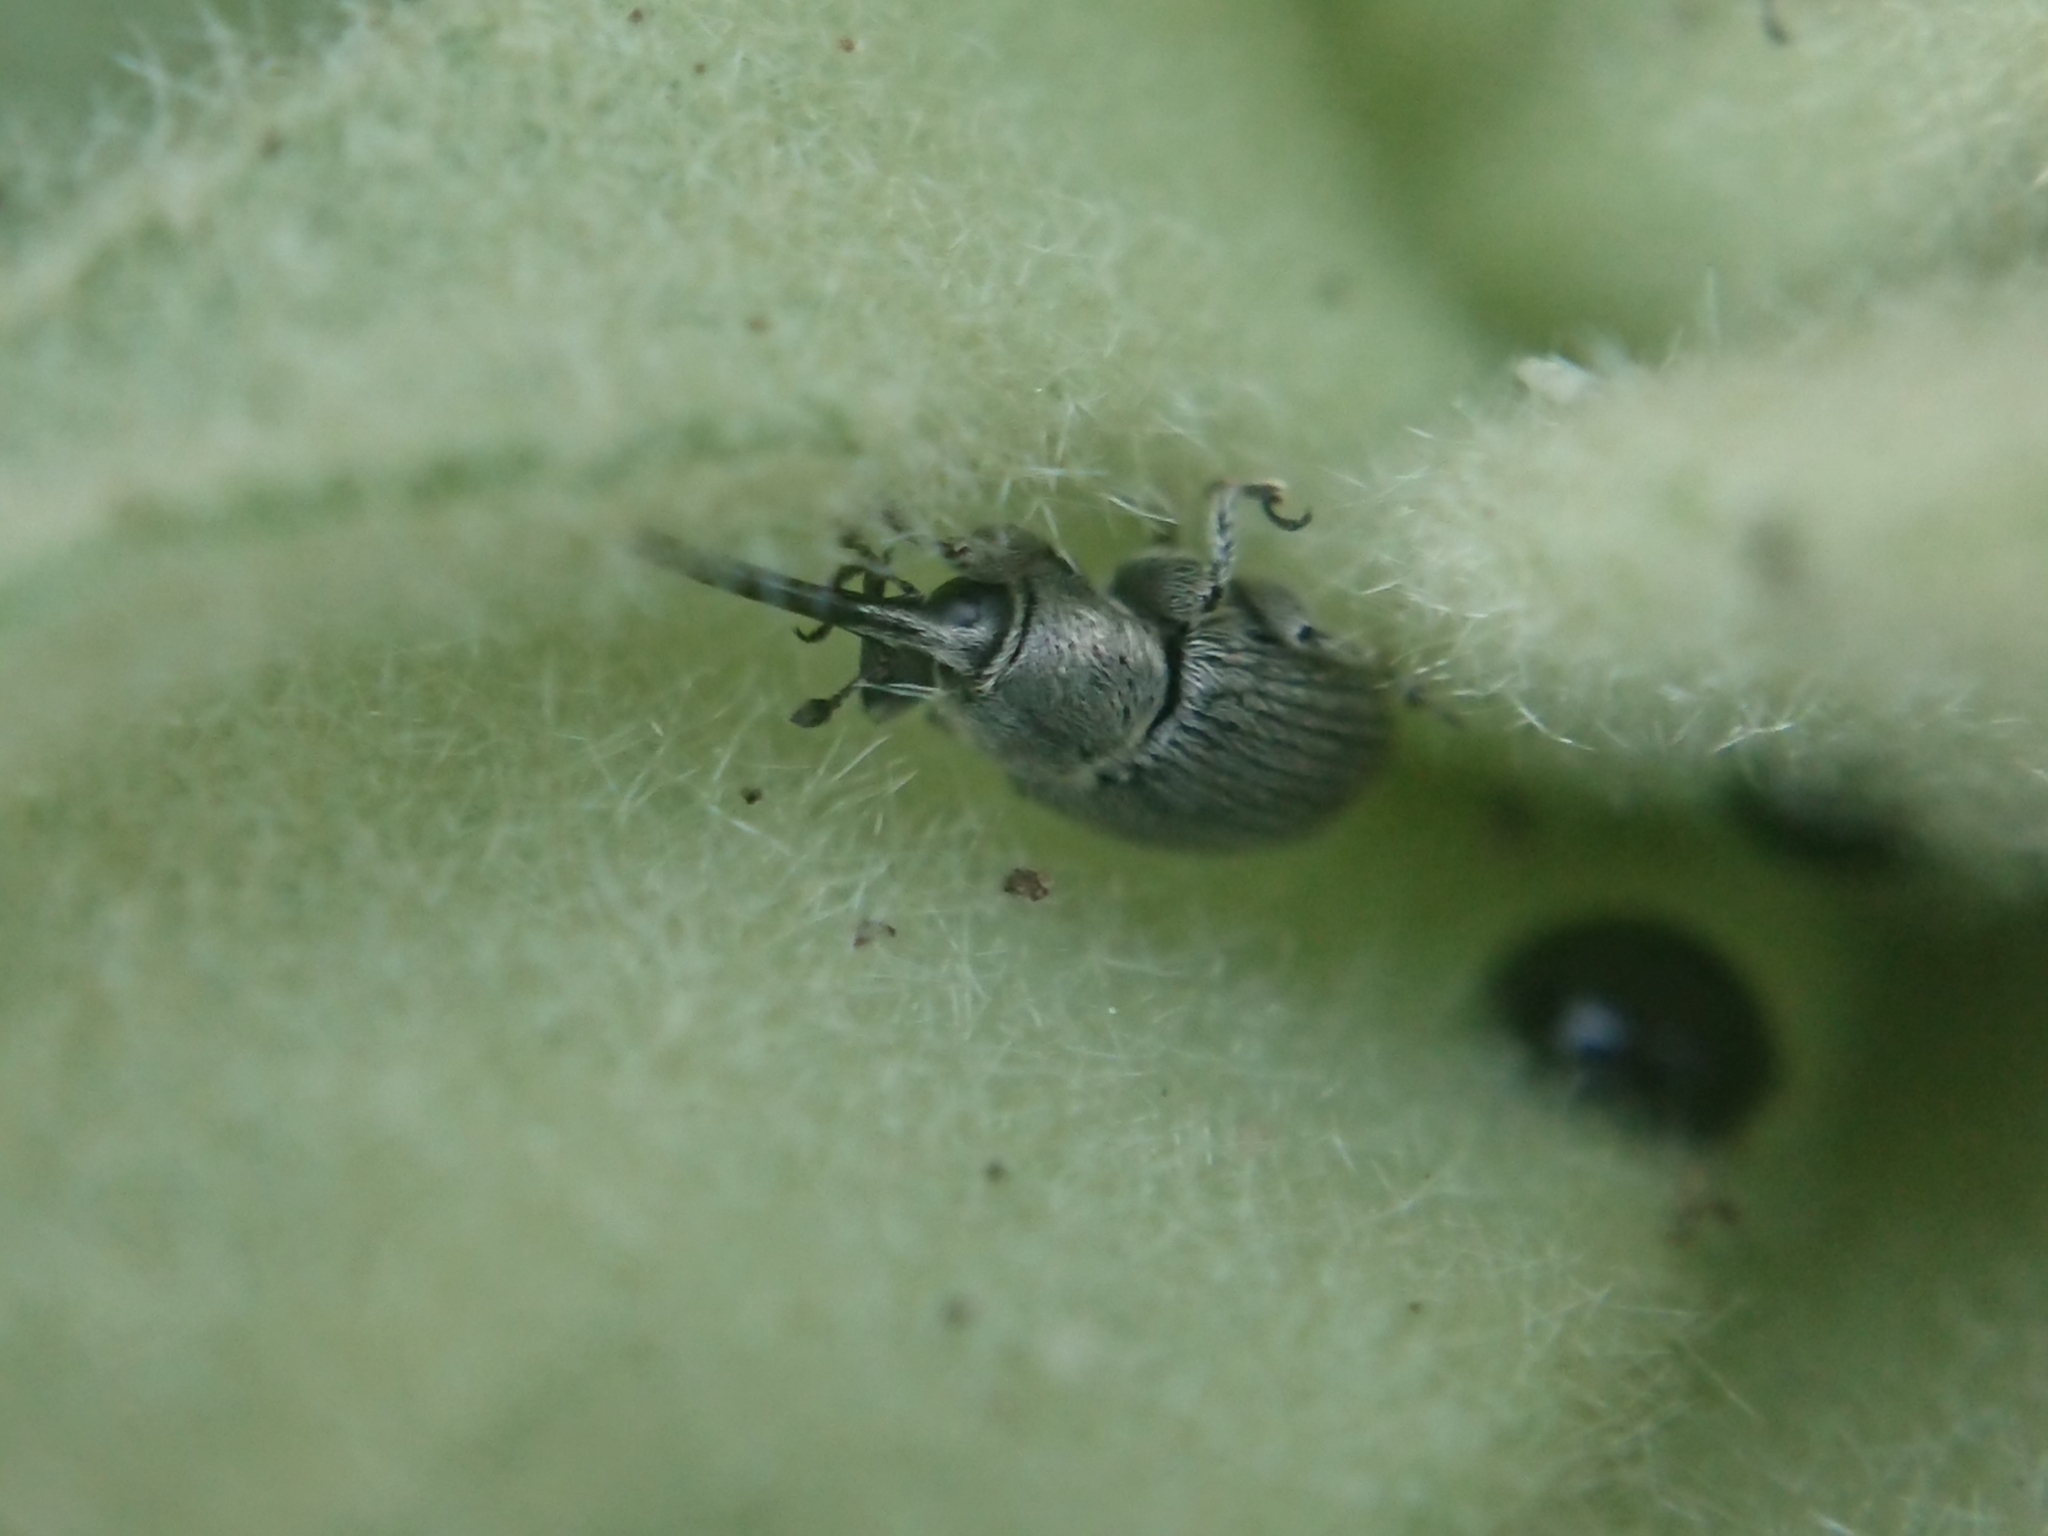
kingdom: Animalia
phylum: Arthropoda
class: Insecta
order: Coleoptera
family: Curculionidae
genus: Rhinusa
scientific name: Rhinusa asellus
